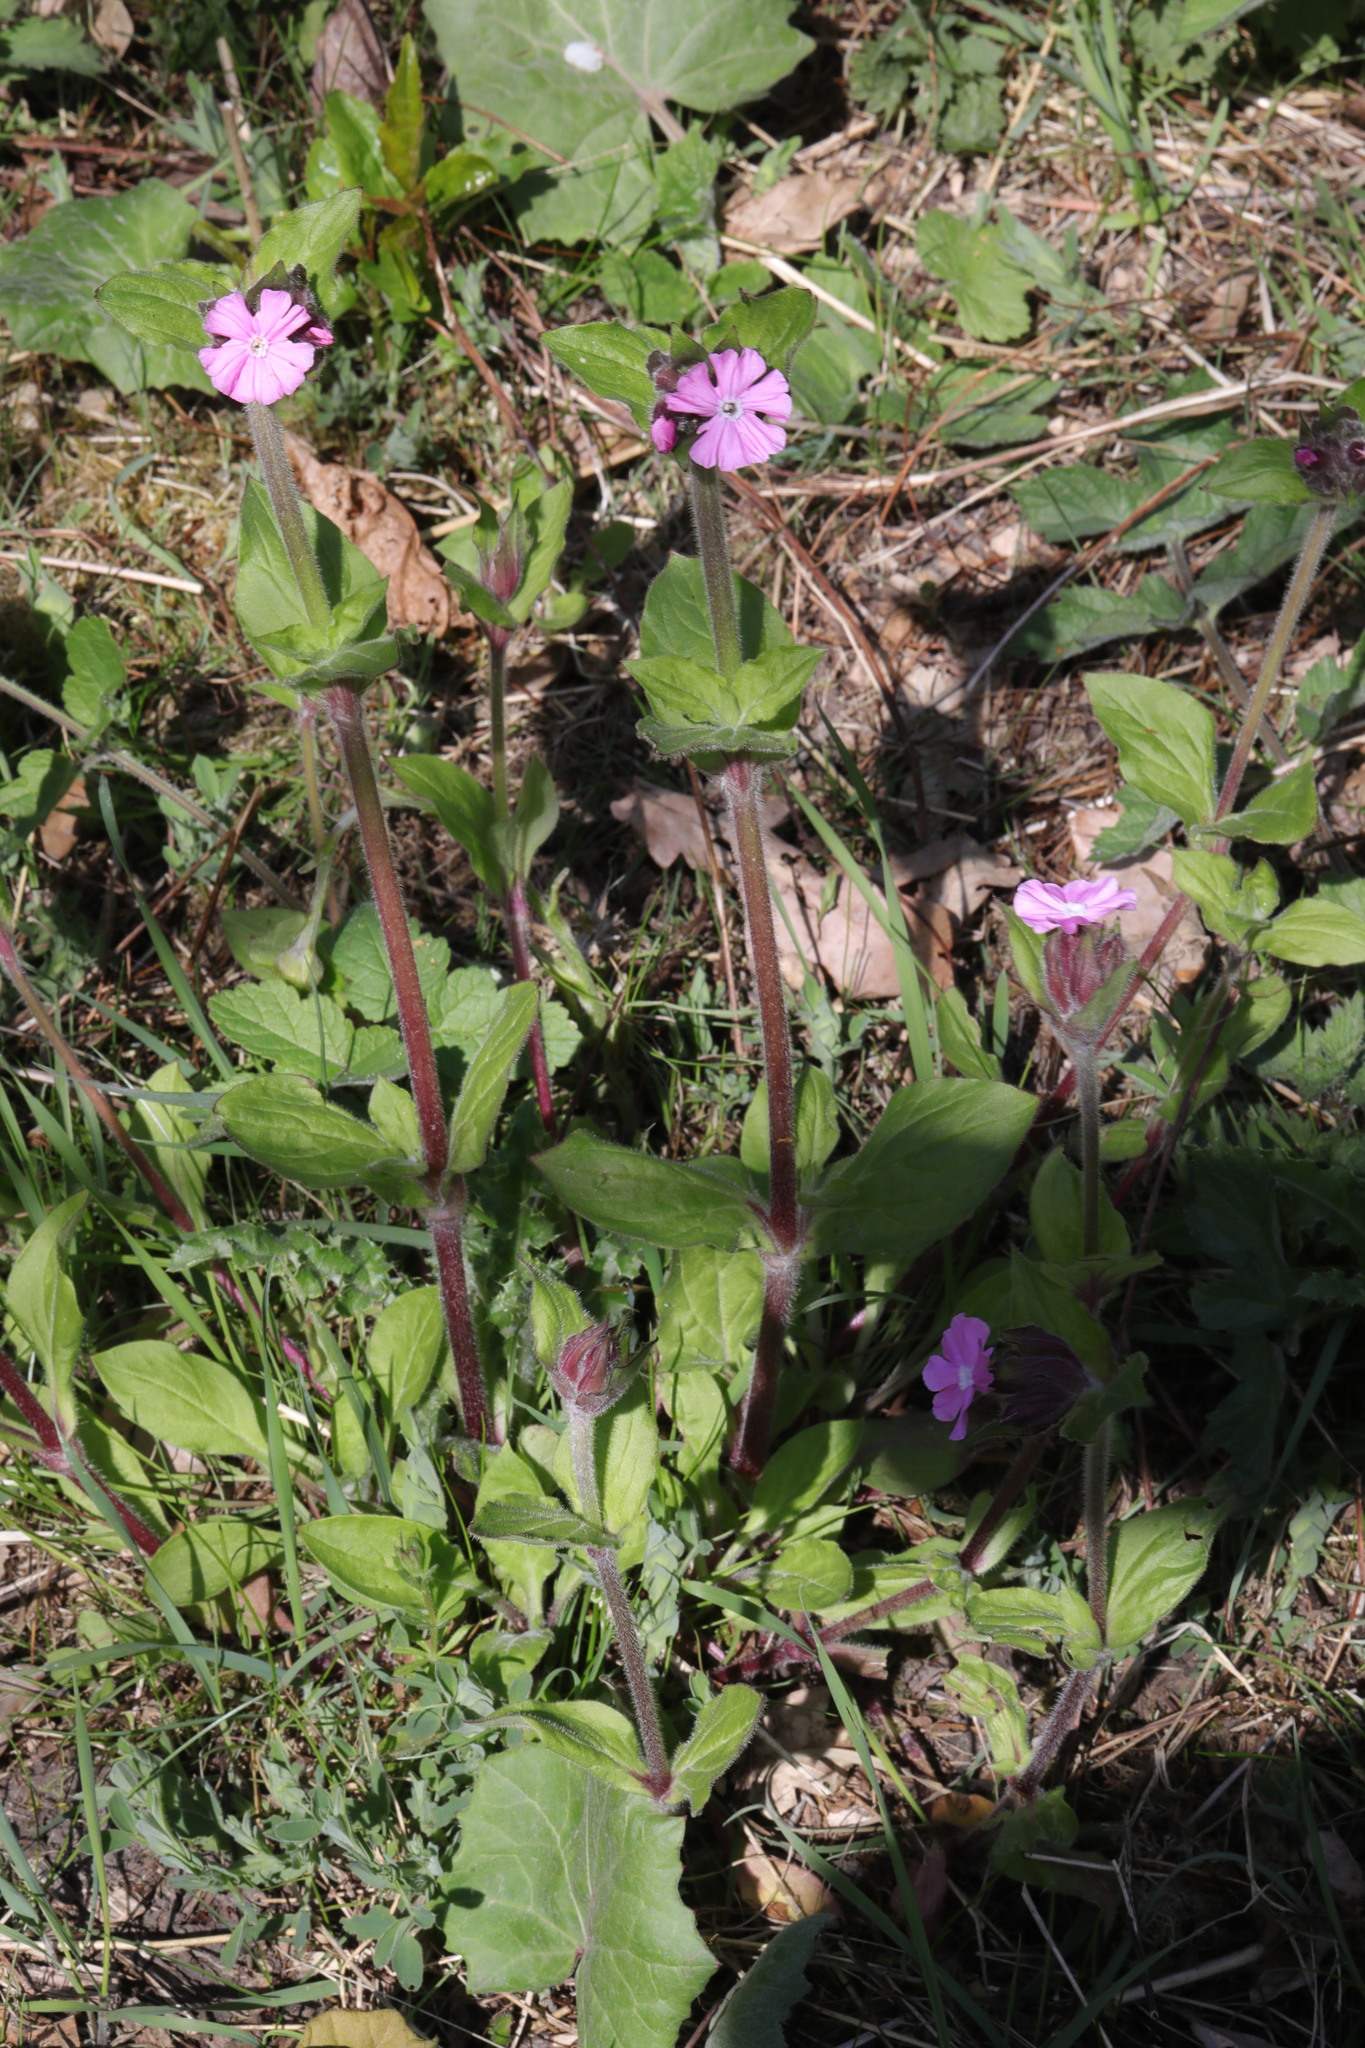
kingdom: Plantae
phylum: Tracheophyta
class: Magnoliopsida
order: Caryophyllales
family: Caryophyllaceae
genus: Silene
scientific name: Silene dioica
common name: Red campion
